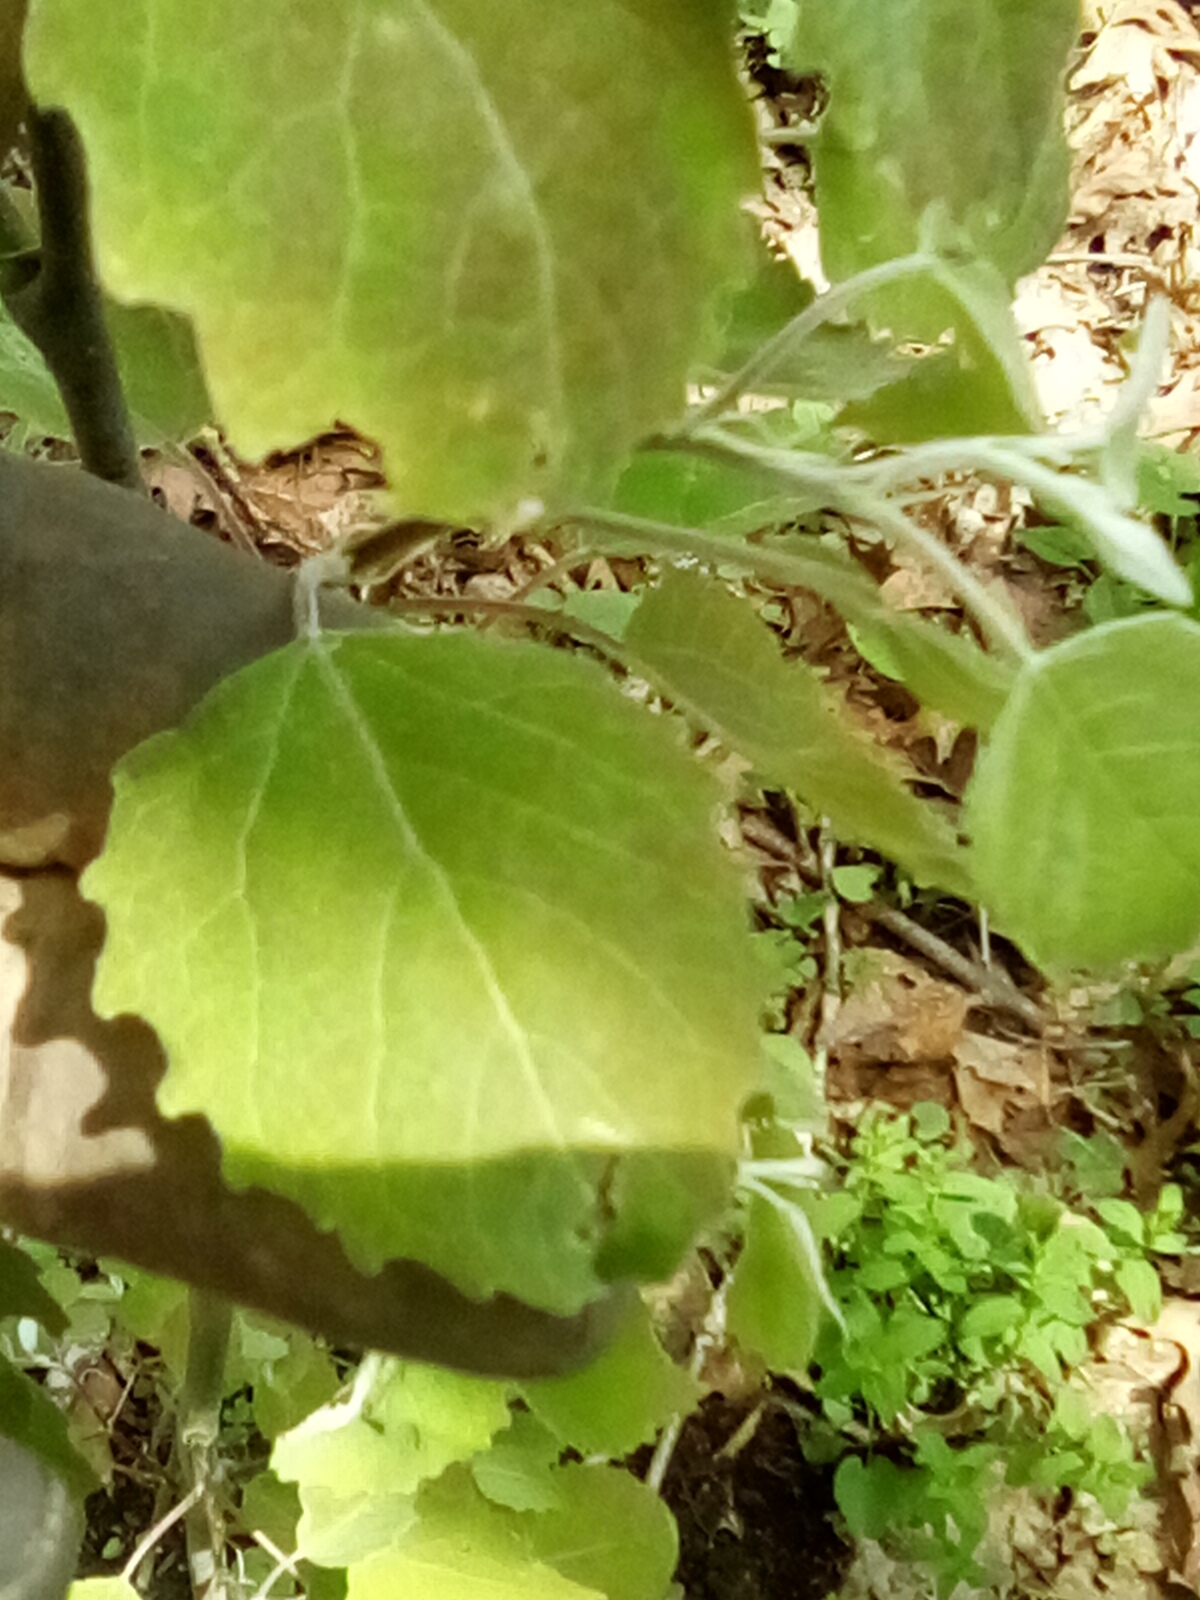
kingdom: Plantae
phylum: Tracheophyta
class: Magnoliopsida
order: Malpighiales
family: Salicaceae
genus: Populus
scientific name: Populus grandidentata
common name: Bigtooth aspen
